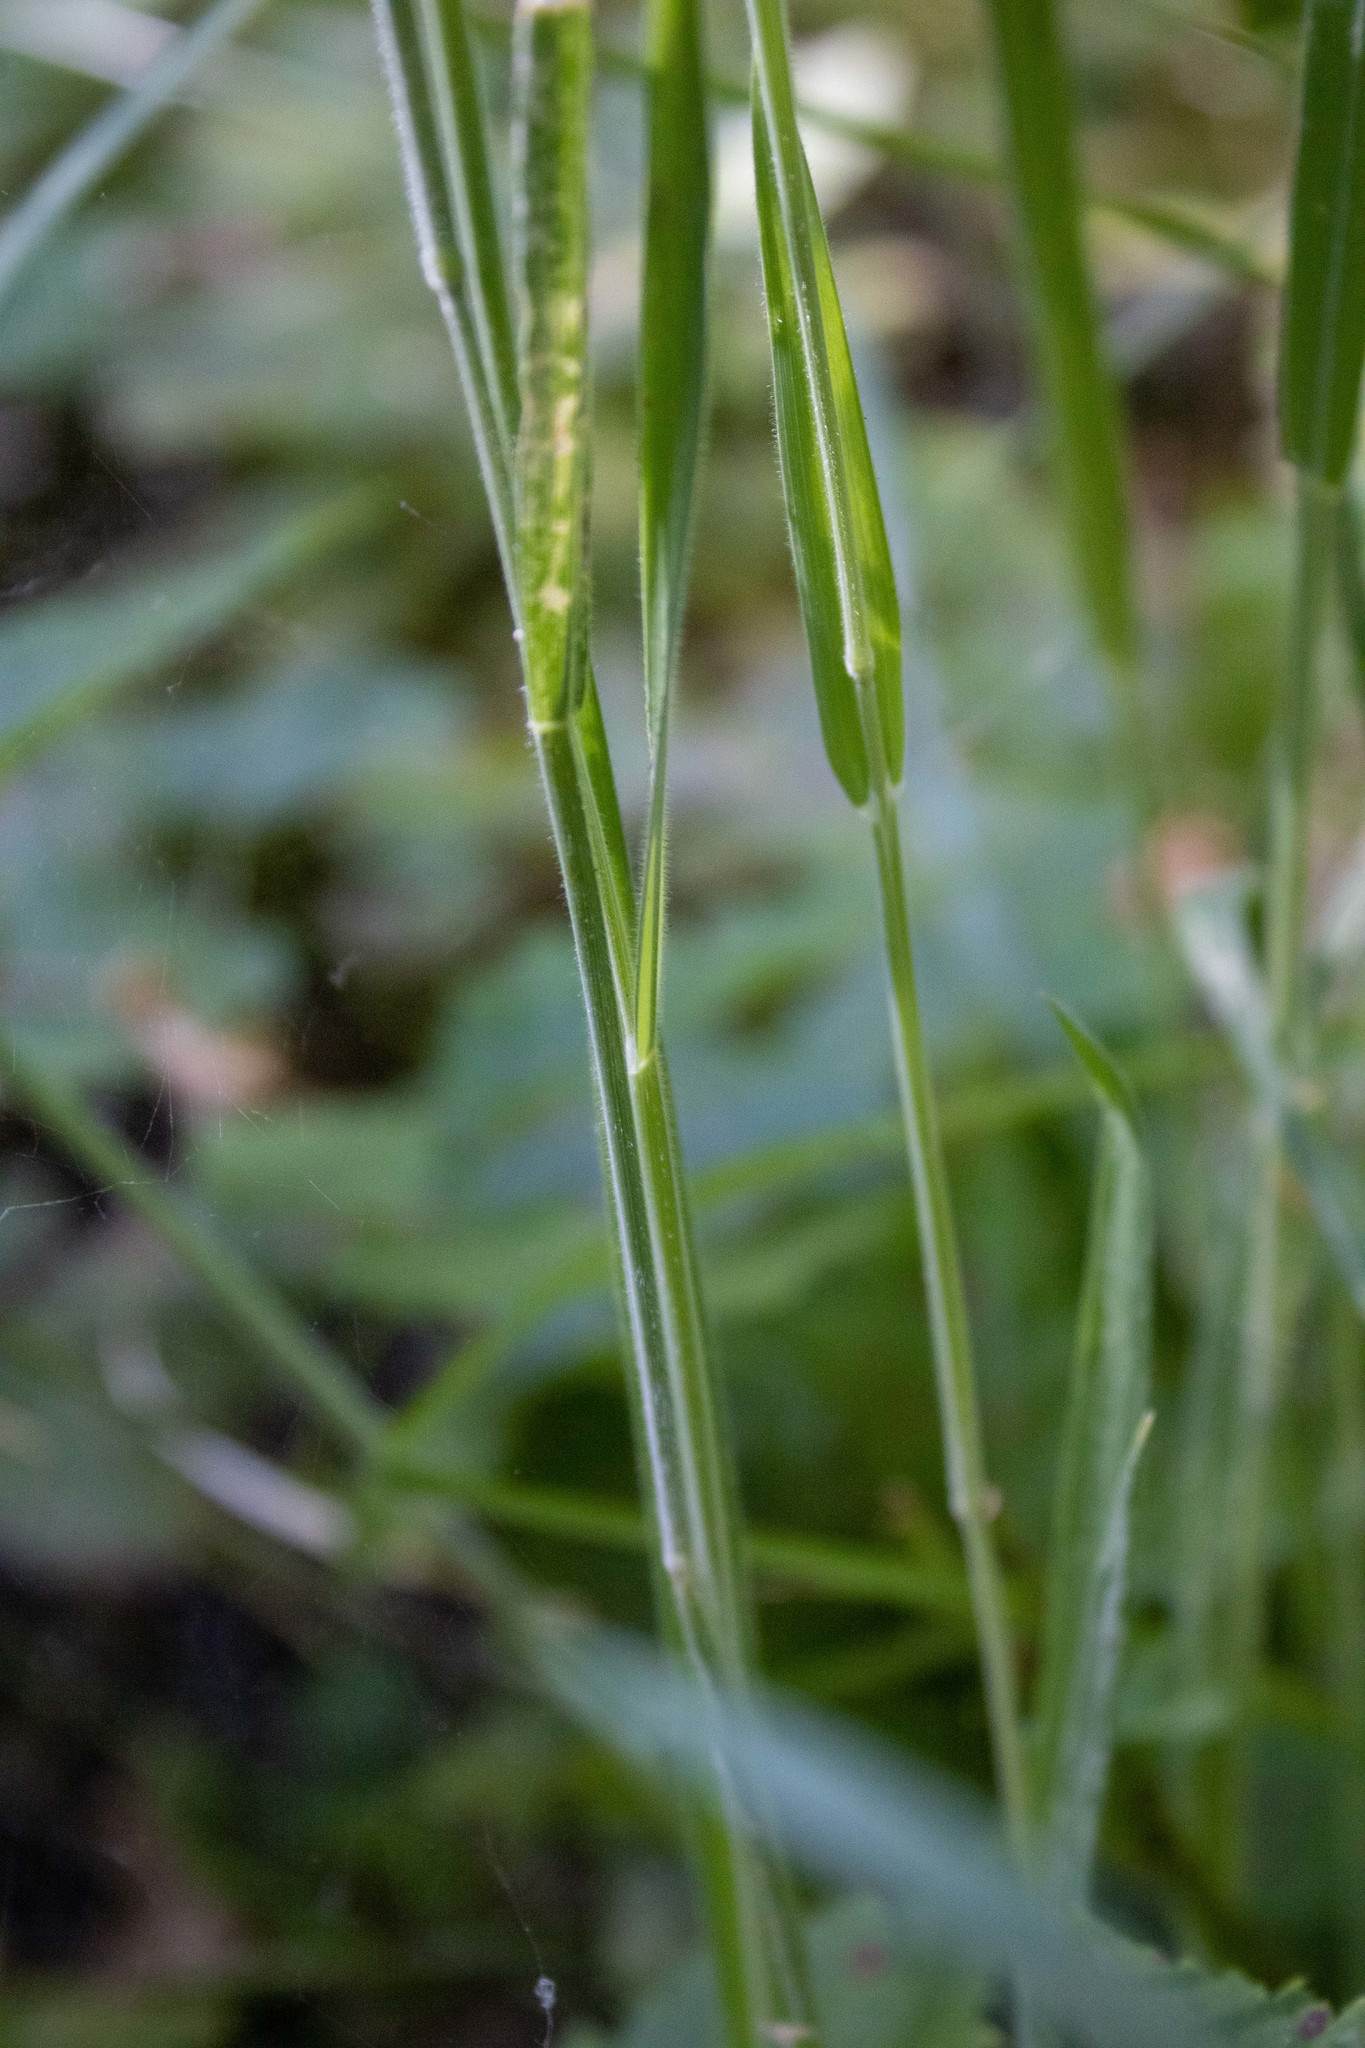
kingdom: Plantae
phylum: Tracheophyta
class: Liliopsida
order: Poales
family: Poaceae
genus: Holcus
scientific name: Holcus lanatus
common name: Yorkshire-fog
